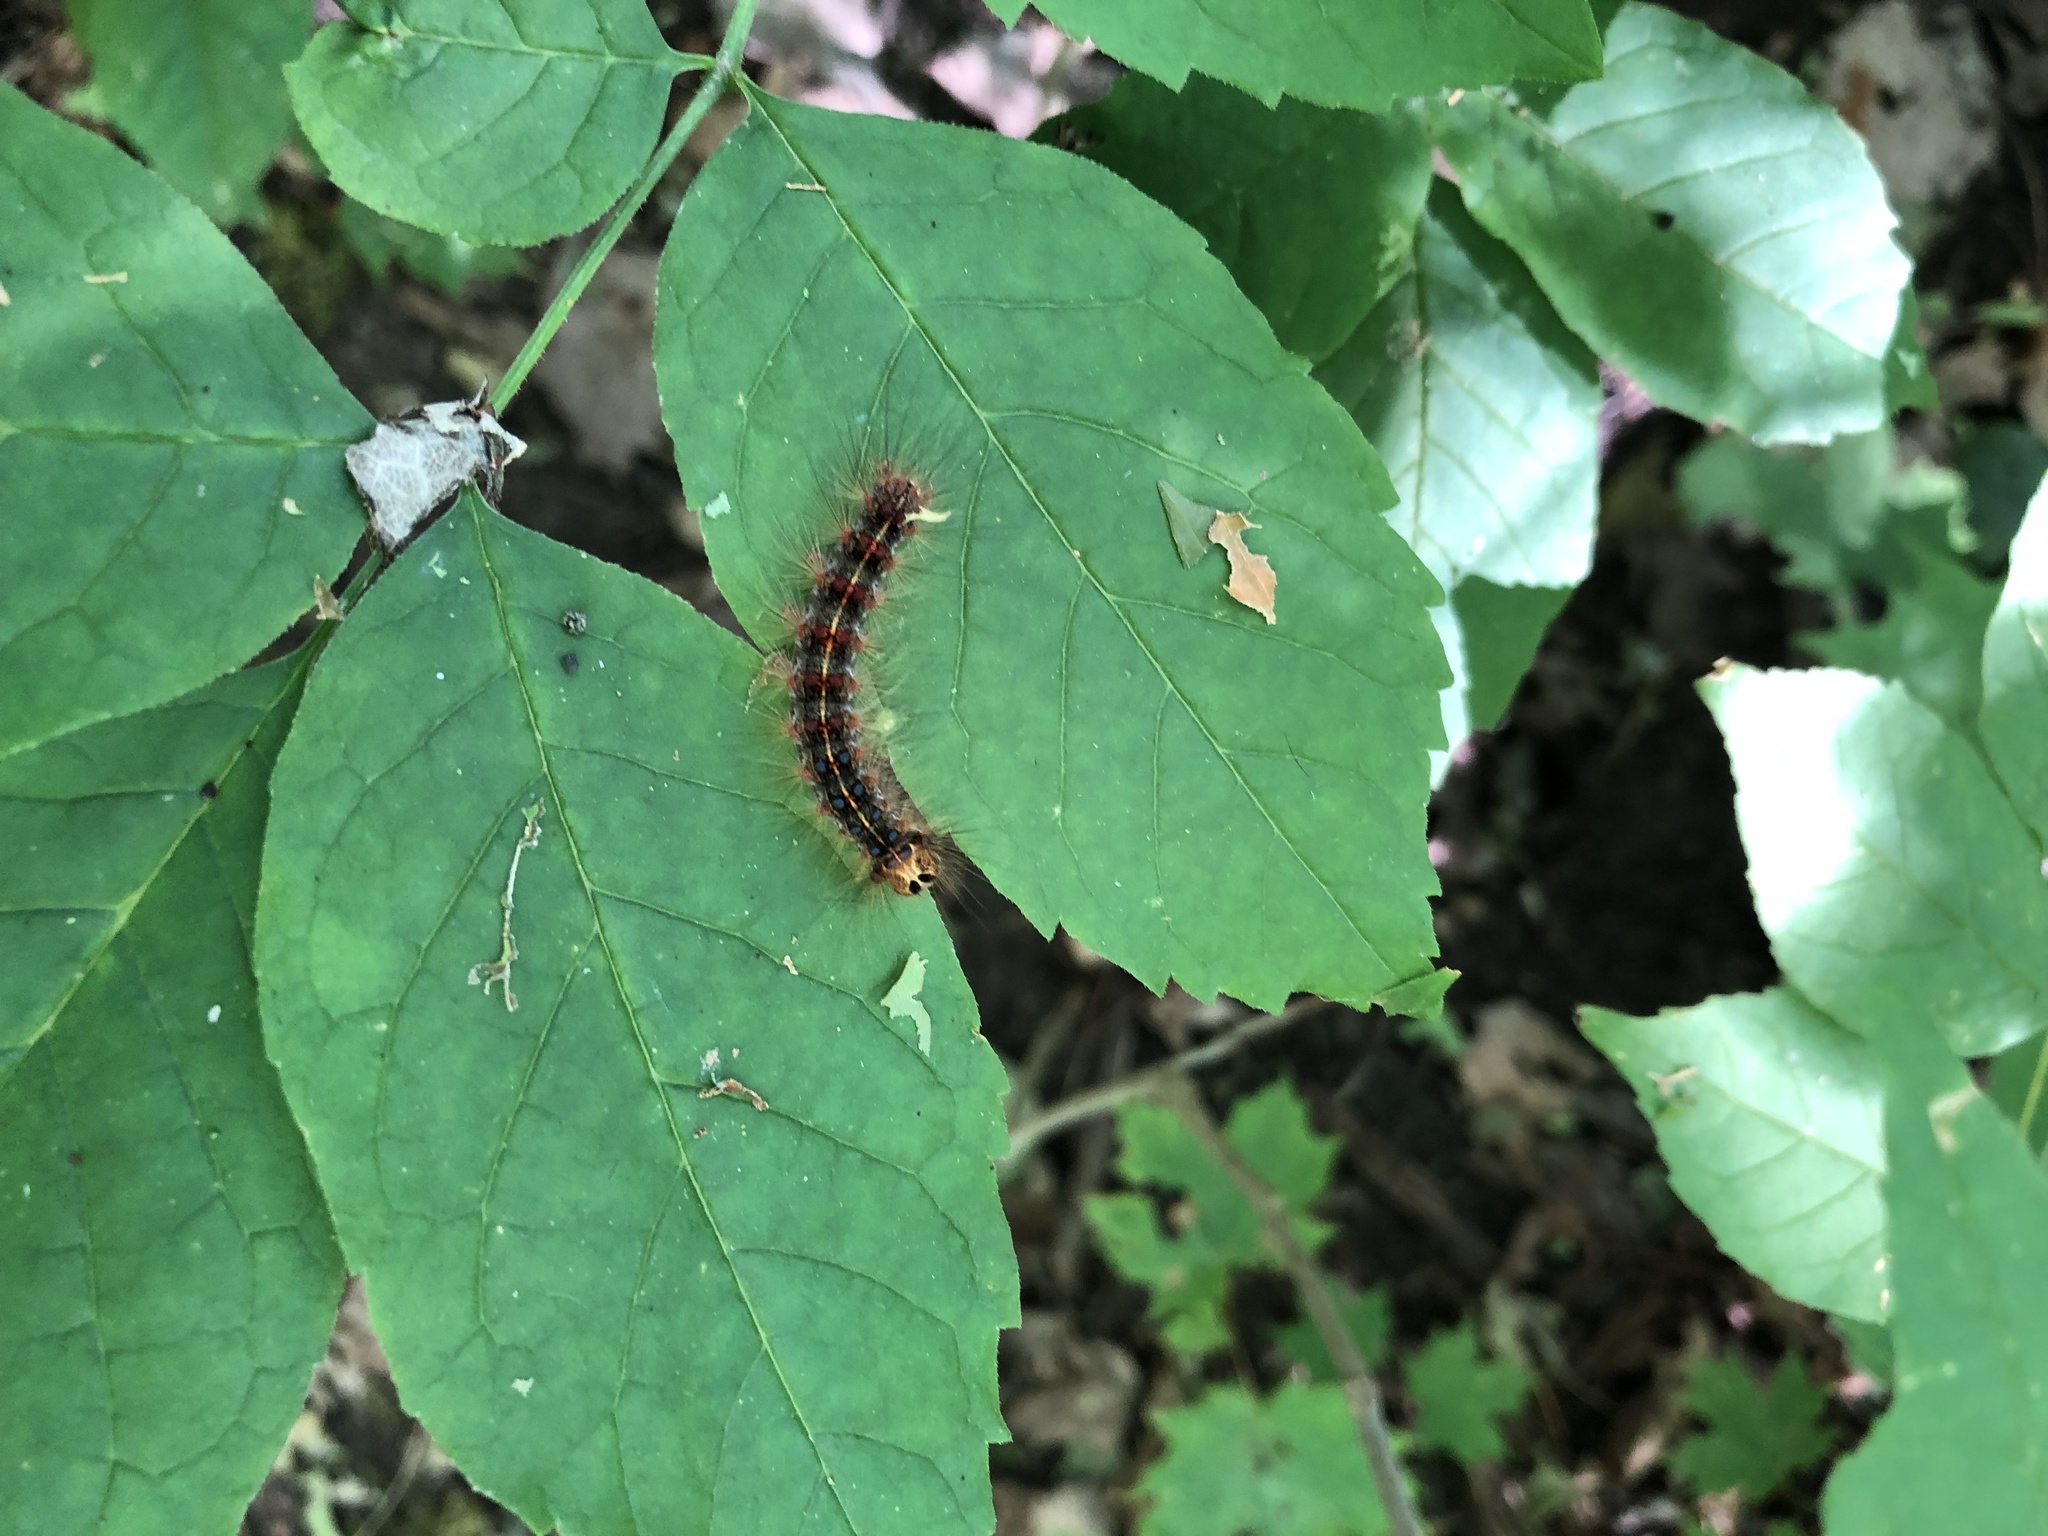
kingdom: Animalia
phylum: Arthropoda
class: Insecta
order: Lepidoptera
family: Erebidae
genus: Lymantria
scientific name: Lymantria dispar
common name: Gypsy moth
